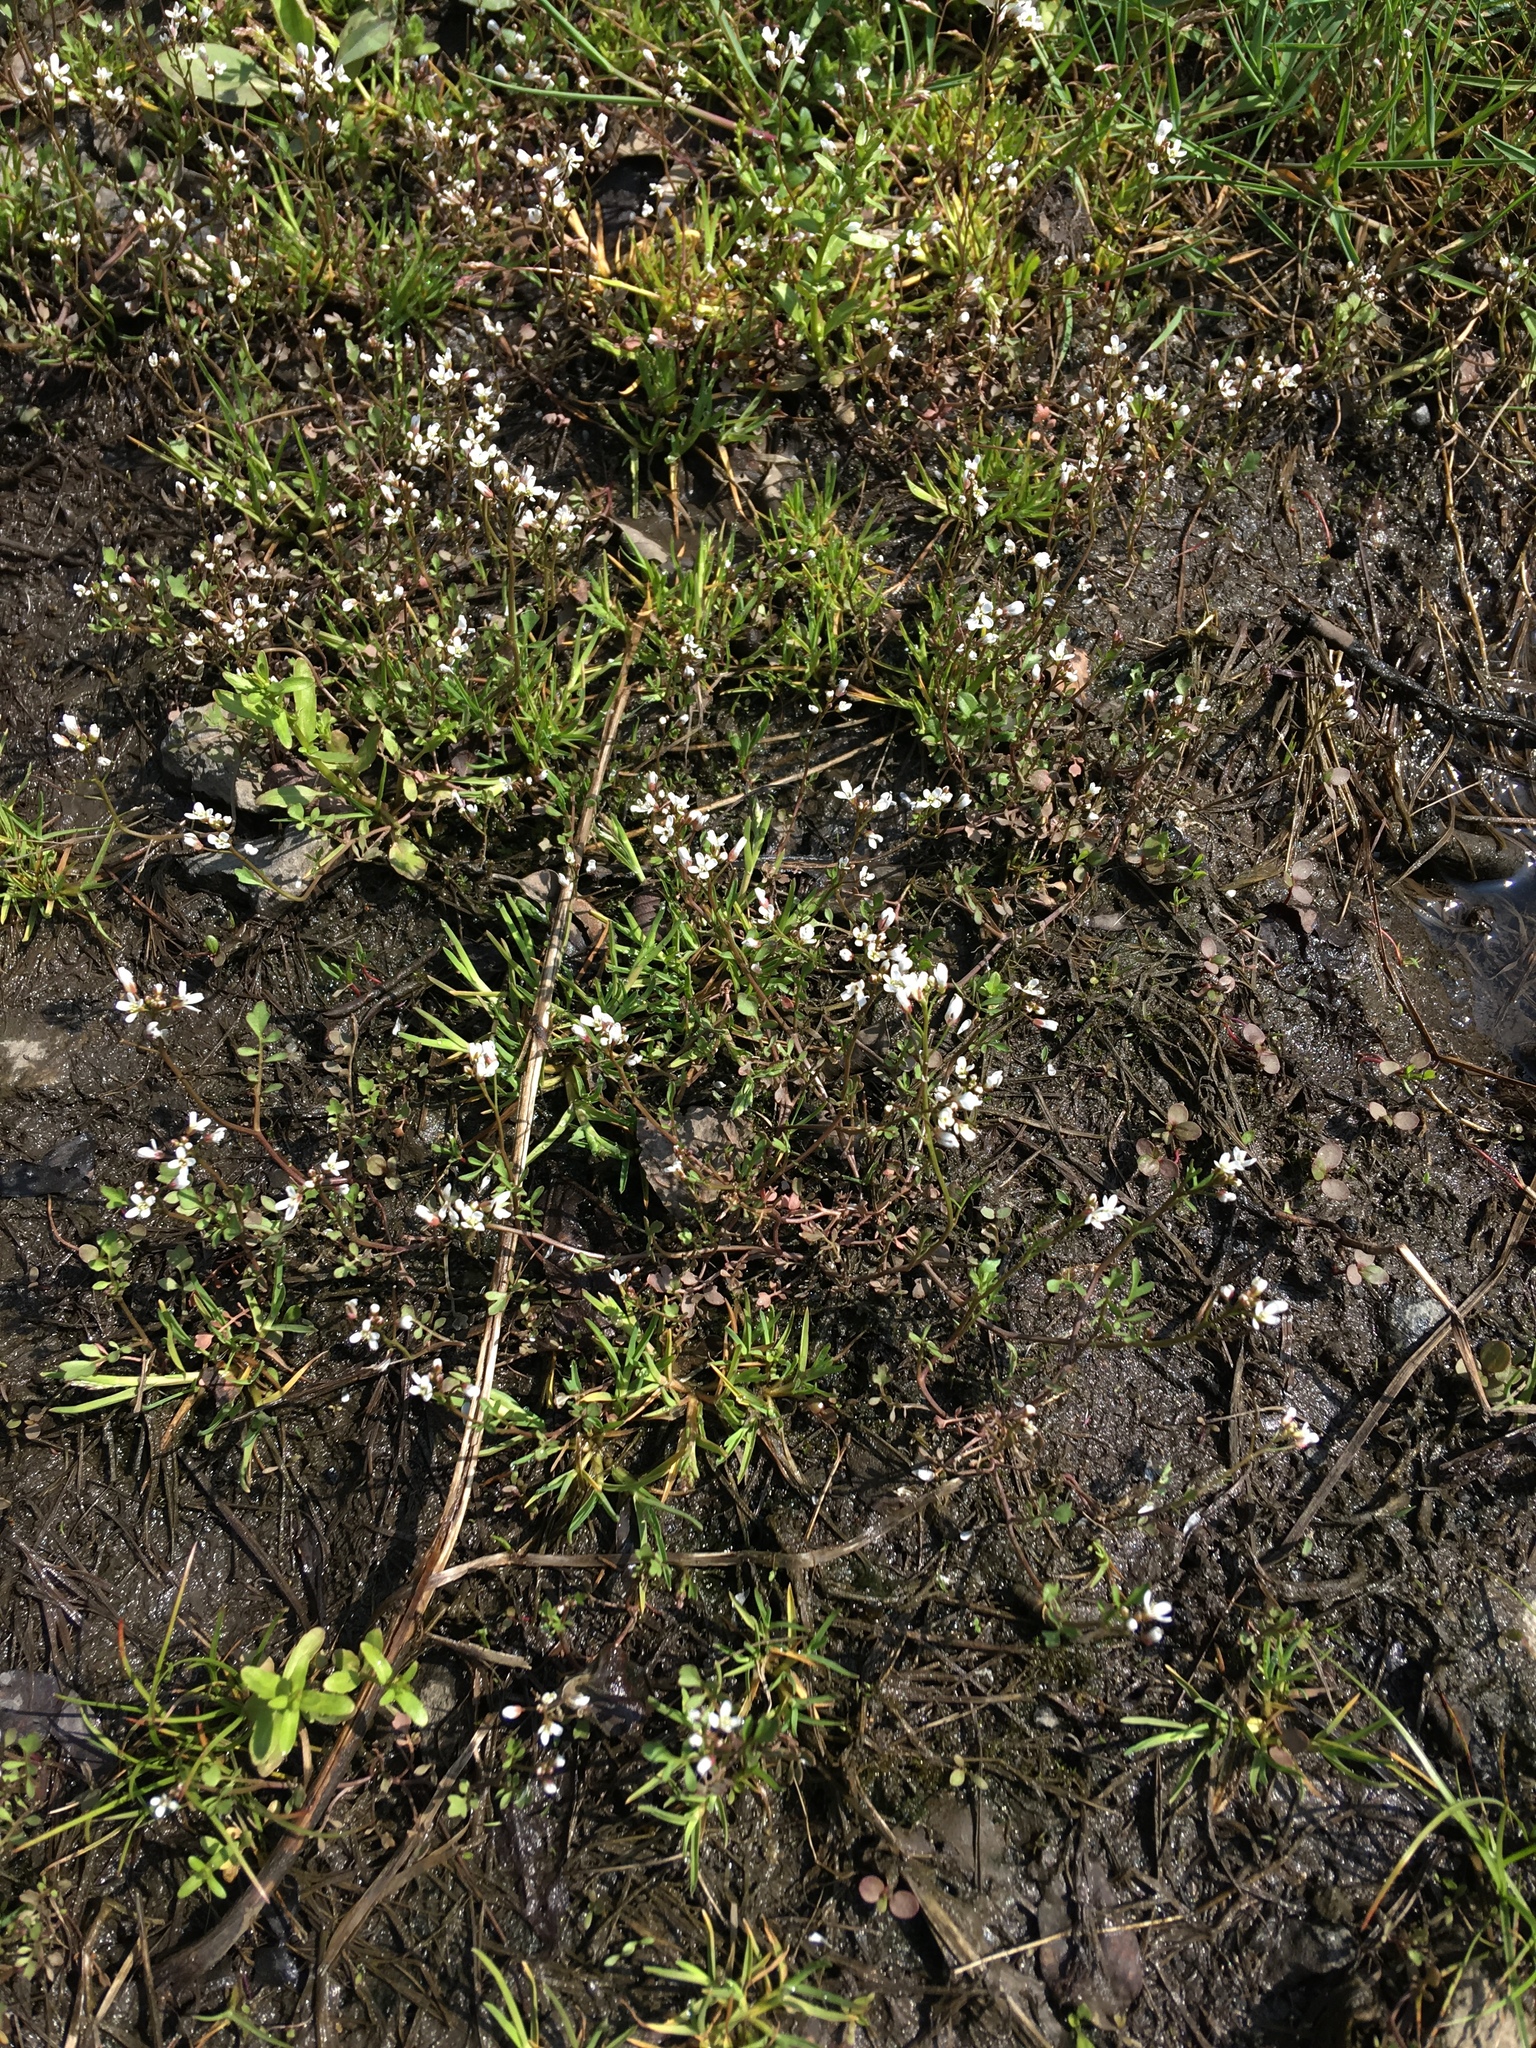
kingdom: Plantae
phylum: Tracheophyta
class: Magnoliopsida
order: Brassicales
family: Brassicaceae
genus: Cardamine
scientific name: Cardamine hirsuta
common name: Hairy bittercress
